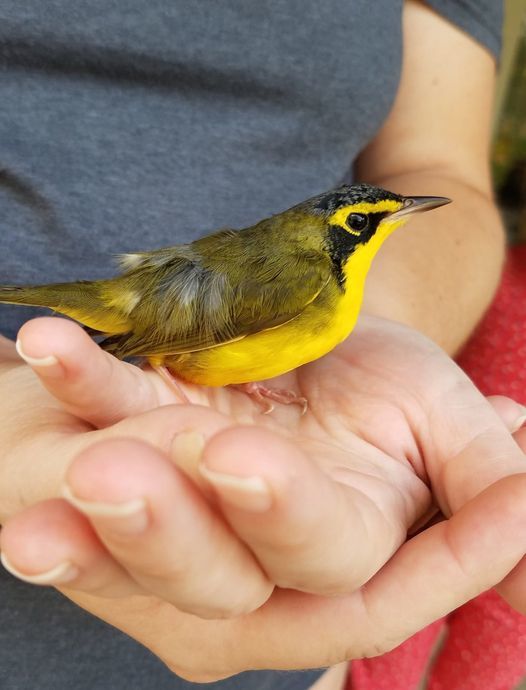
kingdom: Animalia
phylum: Chordata
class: Aves
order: Passeriformes
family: Parulidae
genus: Geothlypis
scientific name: Geothlypis formosa
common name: Kentucky warbler
